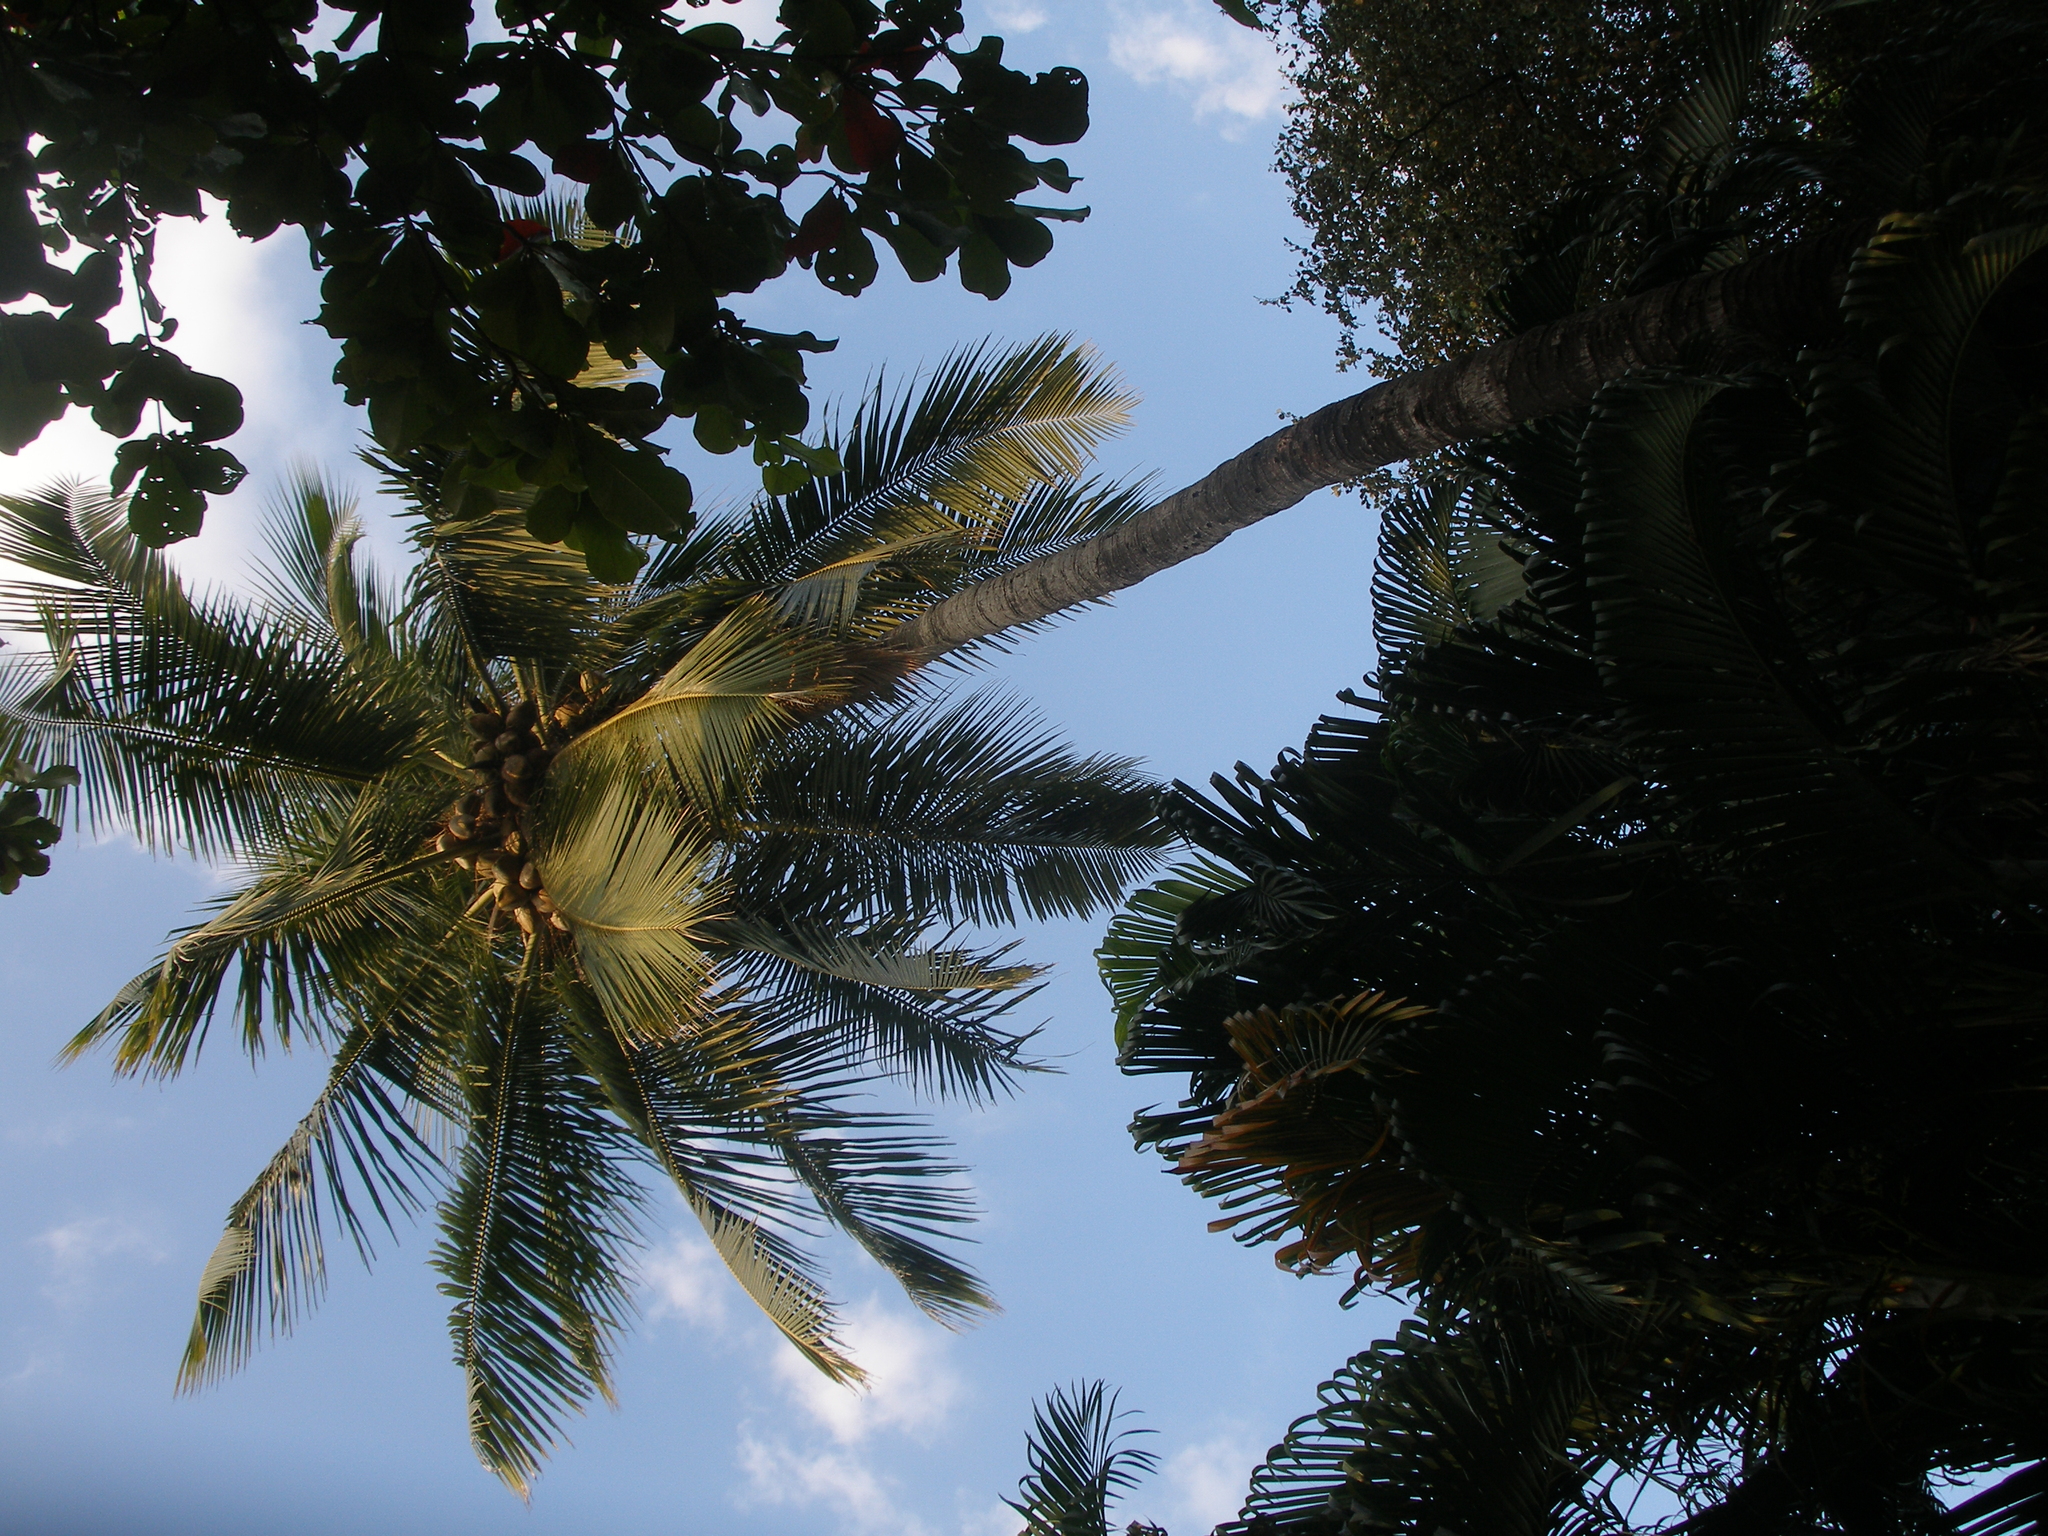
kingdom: Plantae
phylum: Tracheophyta
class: Liliopsida
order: Arecales
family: Arecaceae
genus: Cocos
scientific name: Cocos nucifera
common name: Coconut palm
